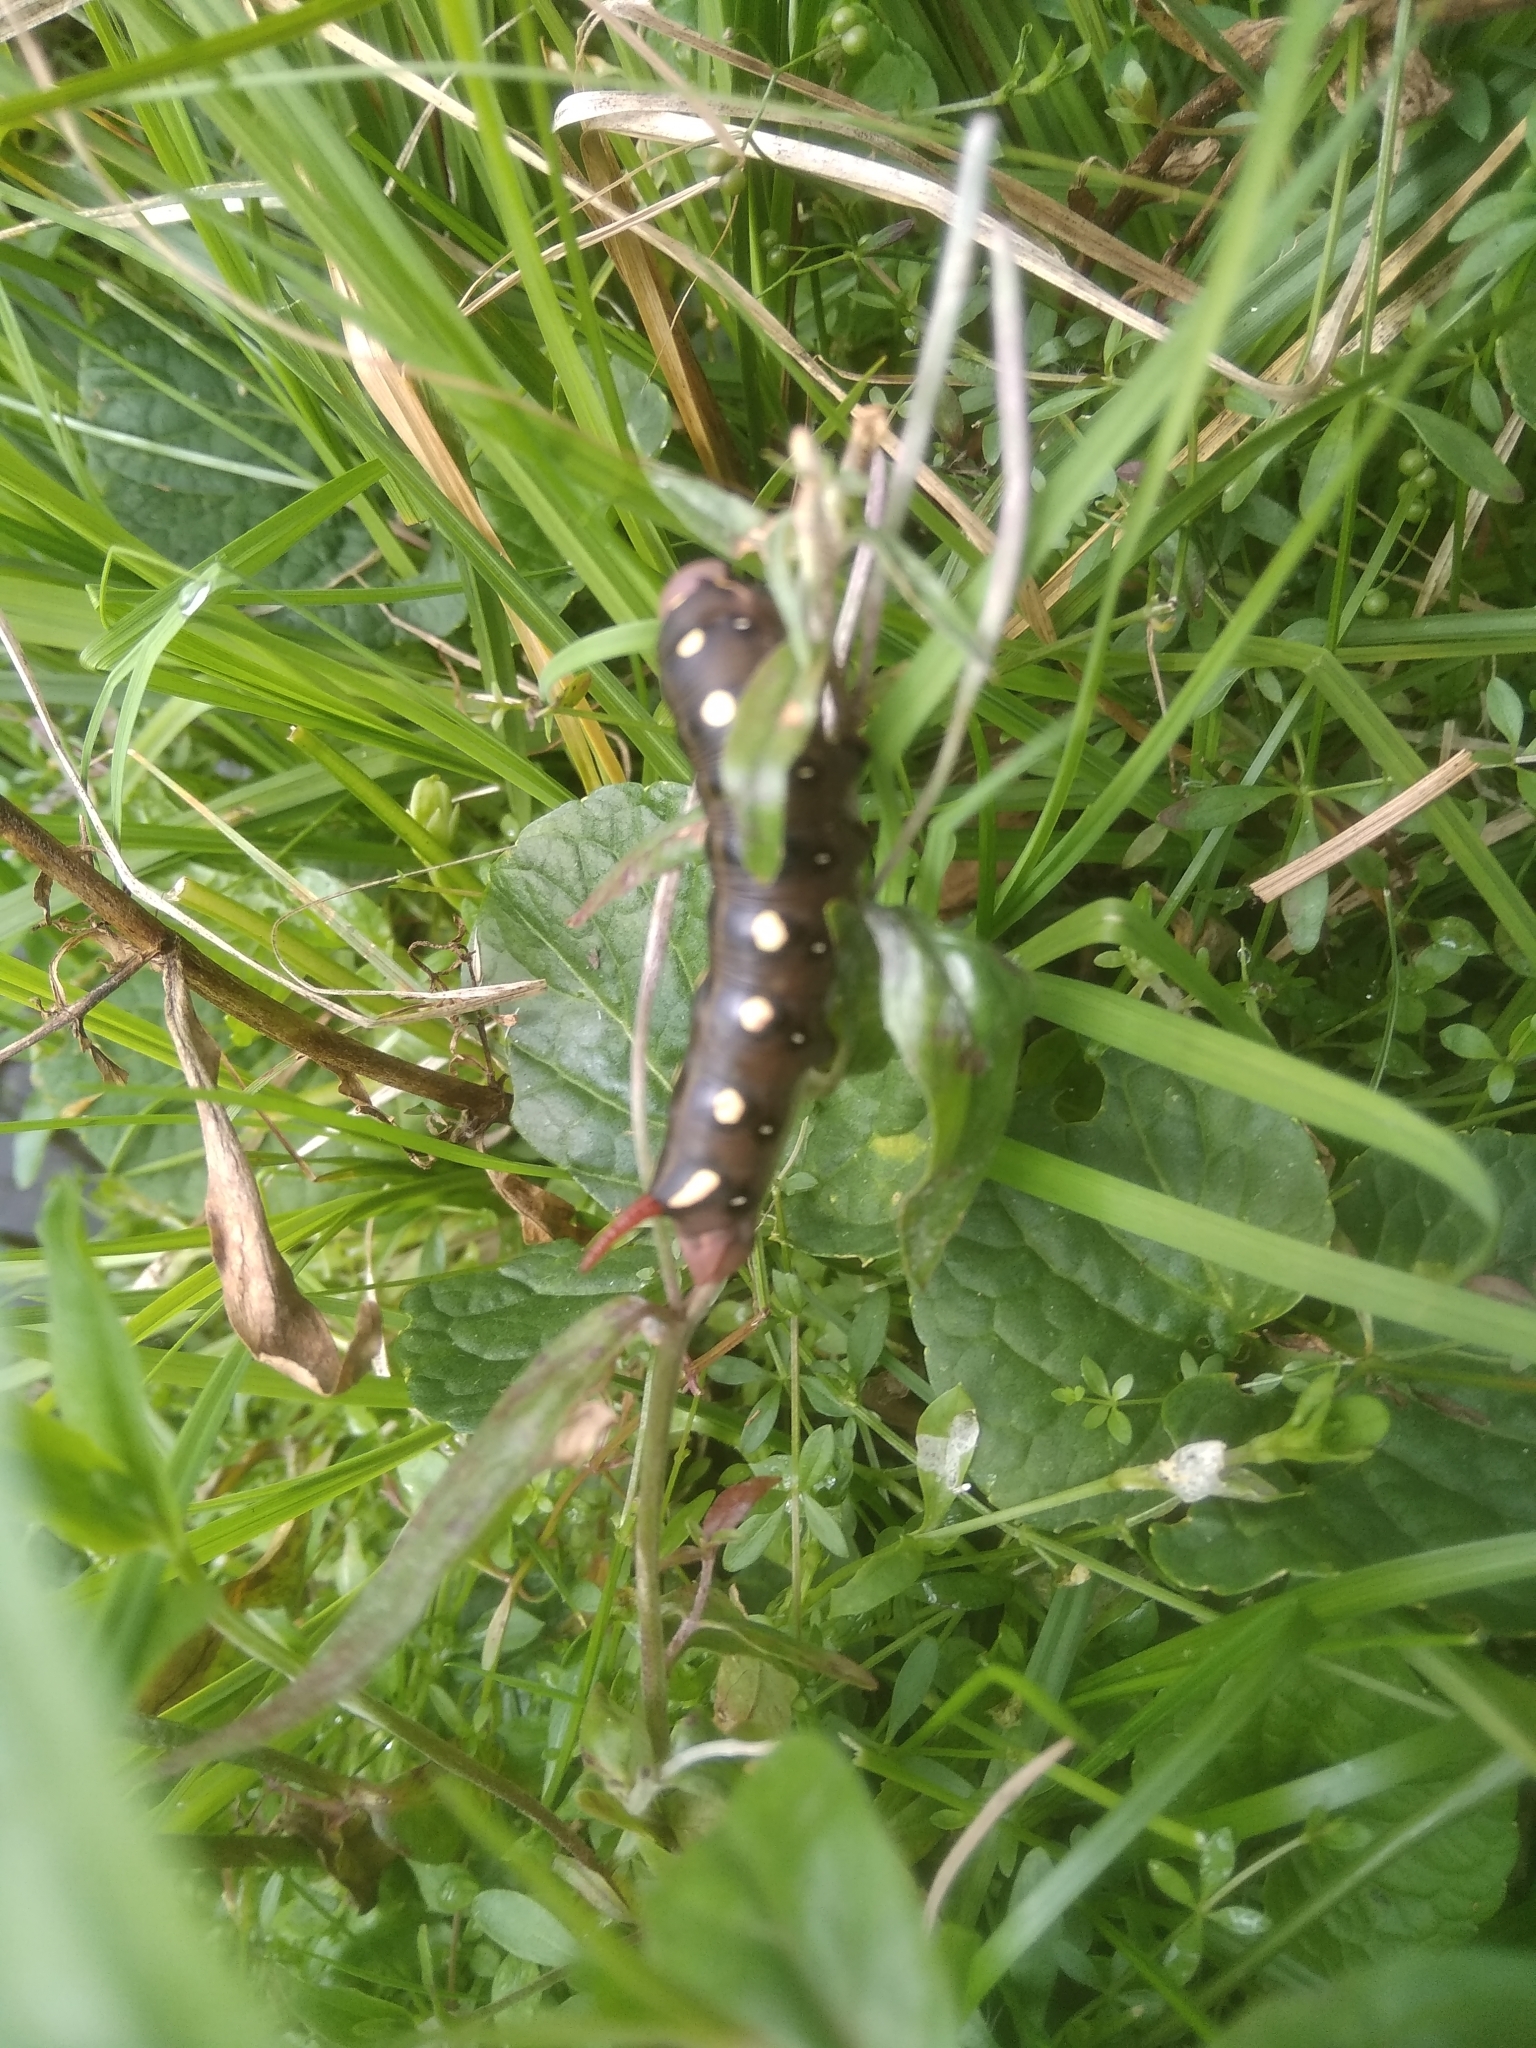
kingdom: Animalia
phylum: Arthropoda
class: Insecta
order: Lepidoptera
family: Sphingidae
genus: Hyles
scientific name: Hyles gallii
